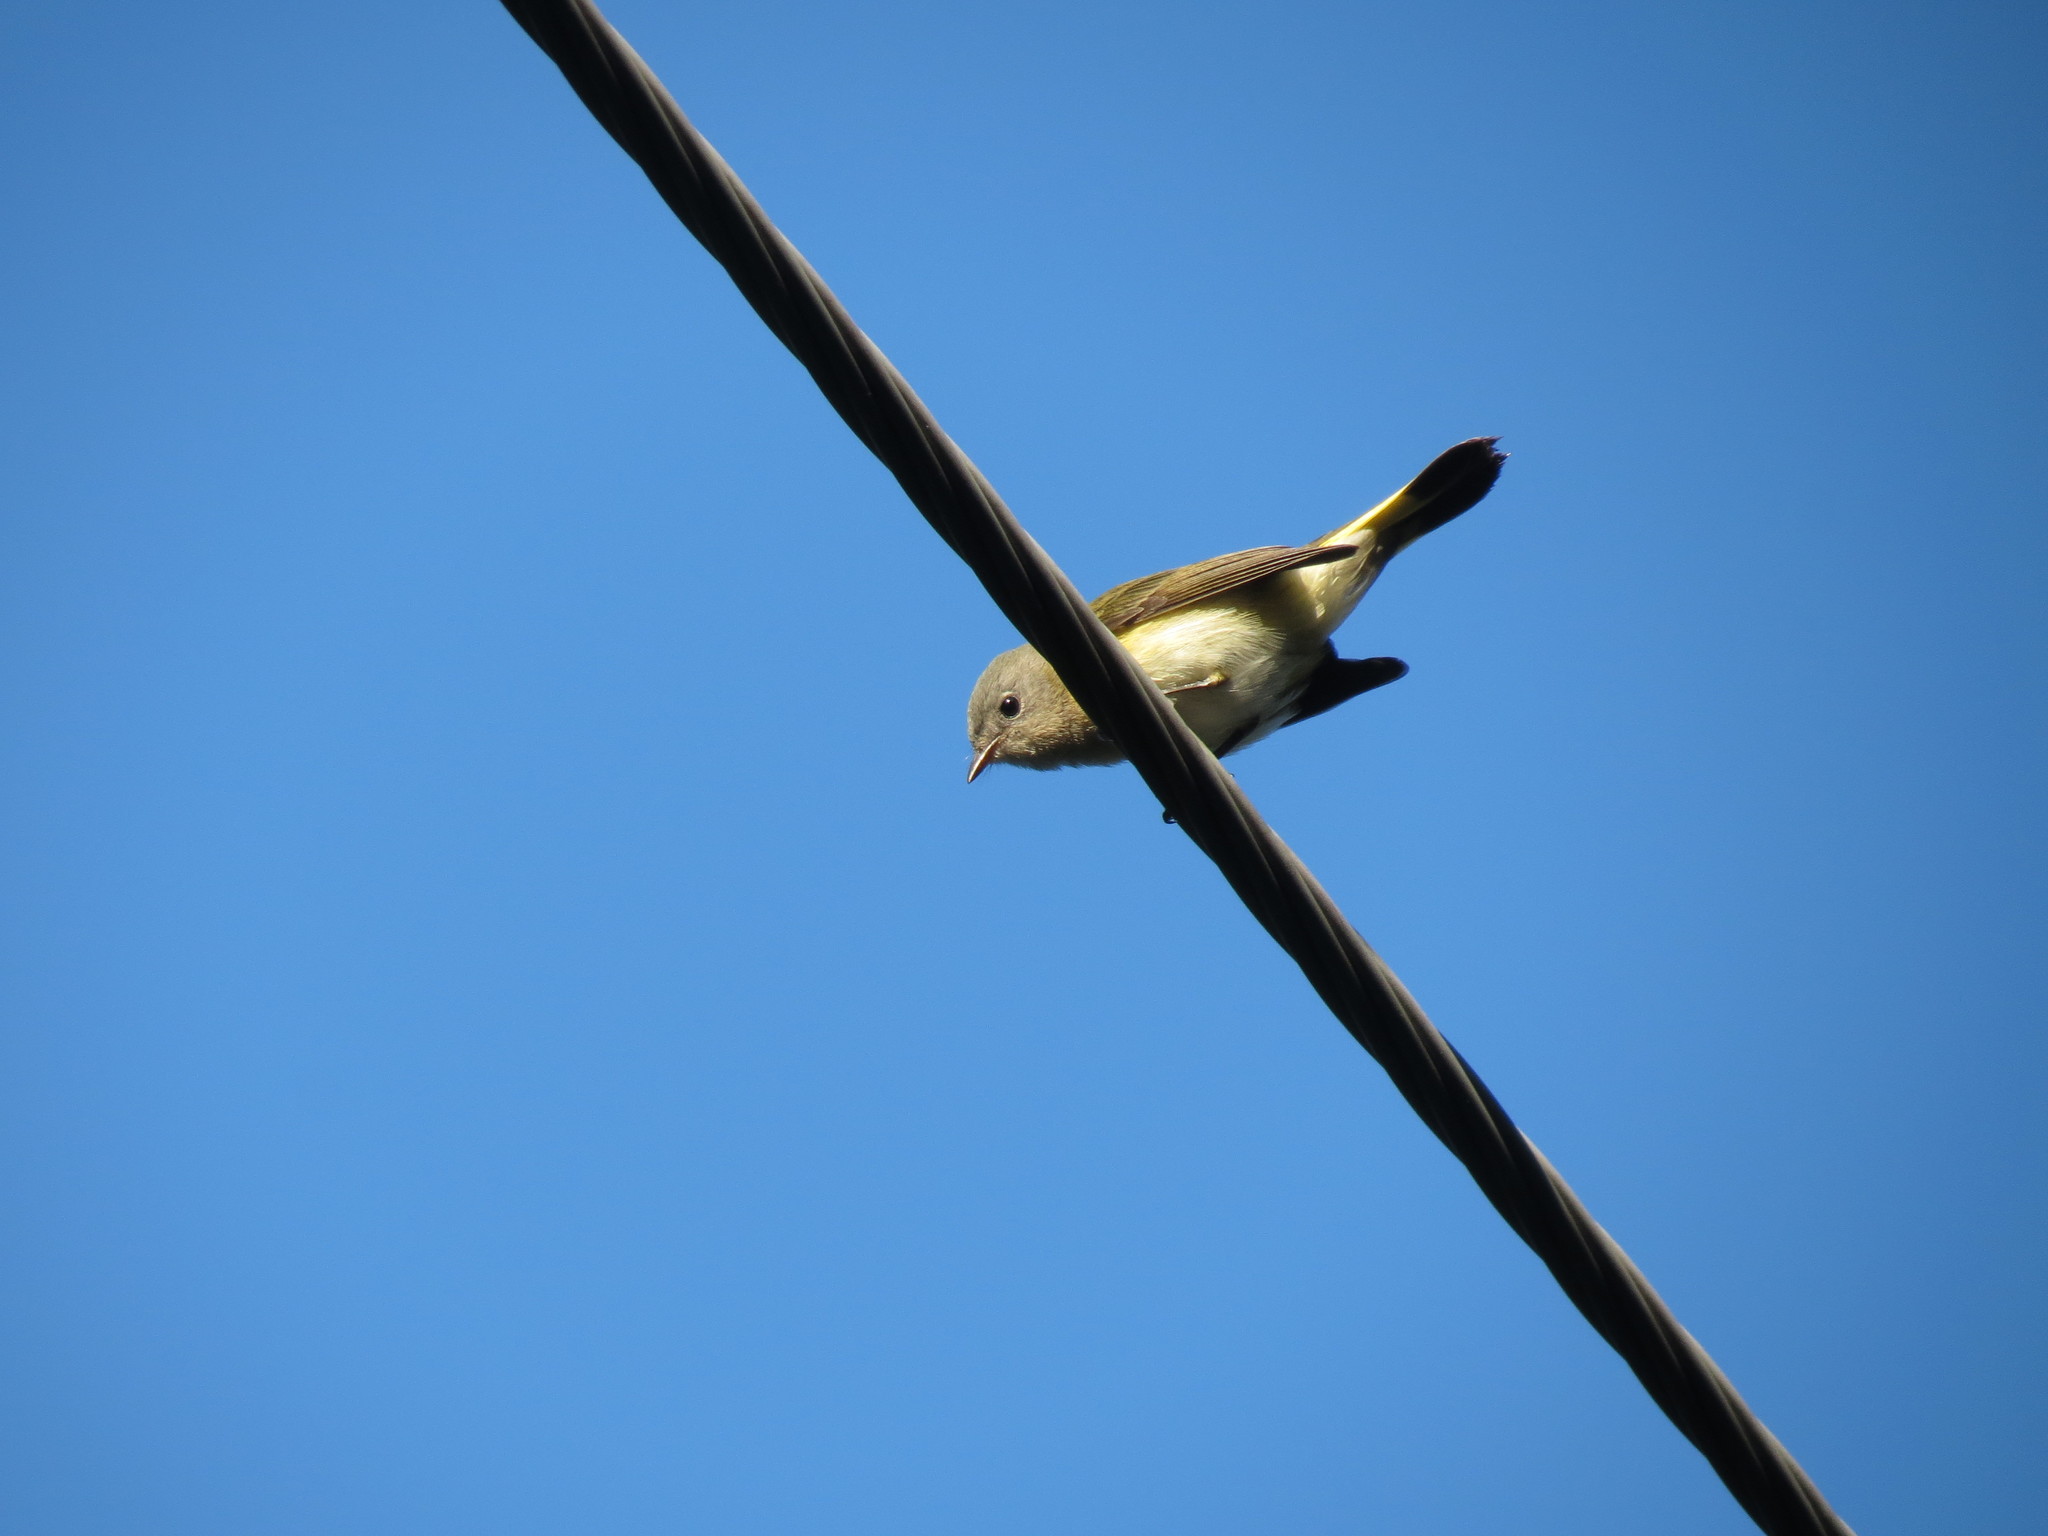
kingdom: Animalia
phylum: Chordata
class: Aves
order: Passeriformes
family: Parulidae
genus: Setophaga
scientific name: Setophaga ruticilla
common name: American redstart
